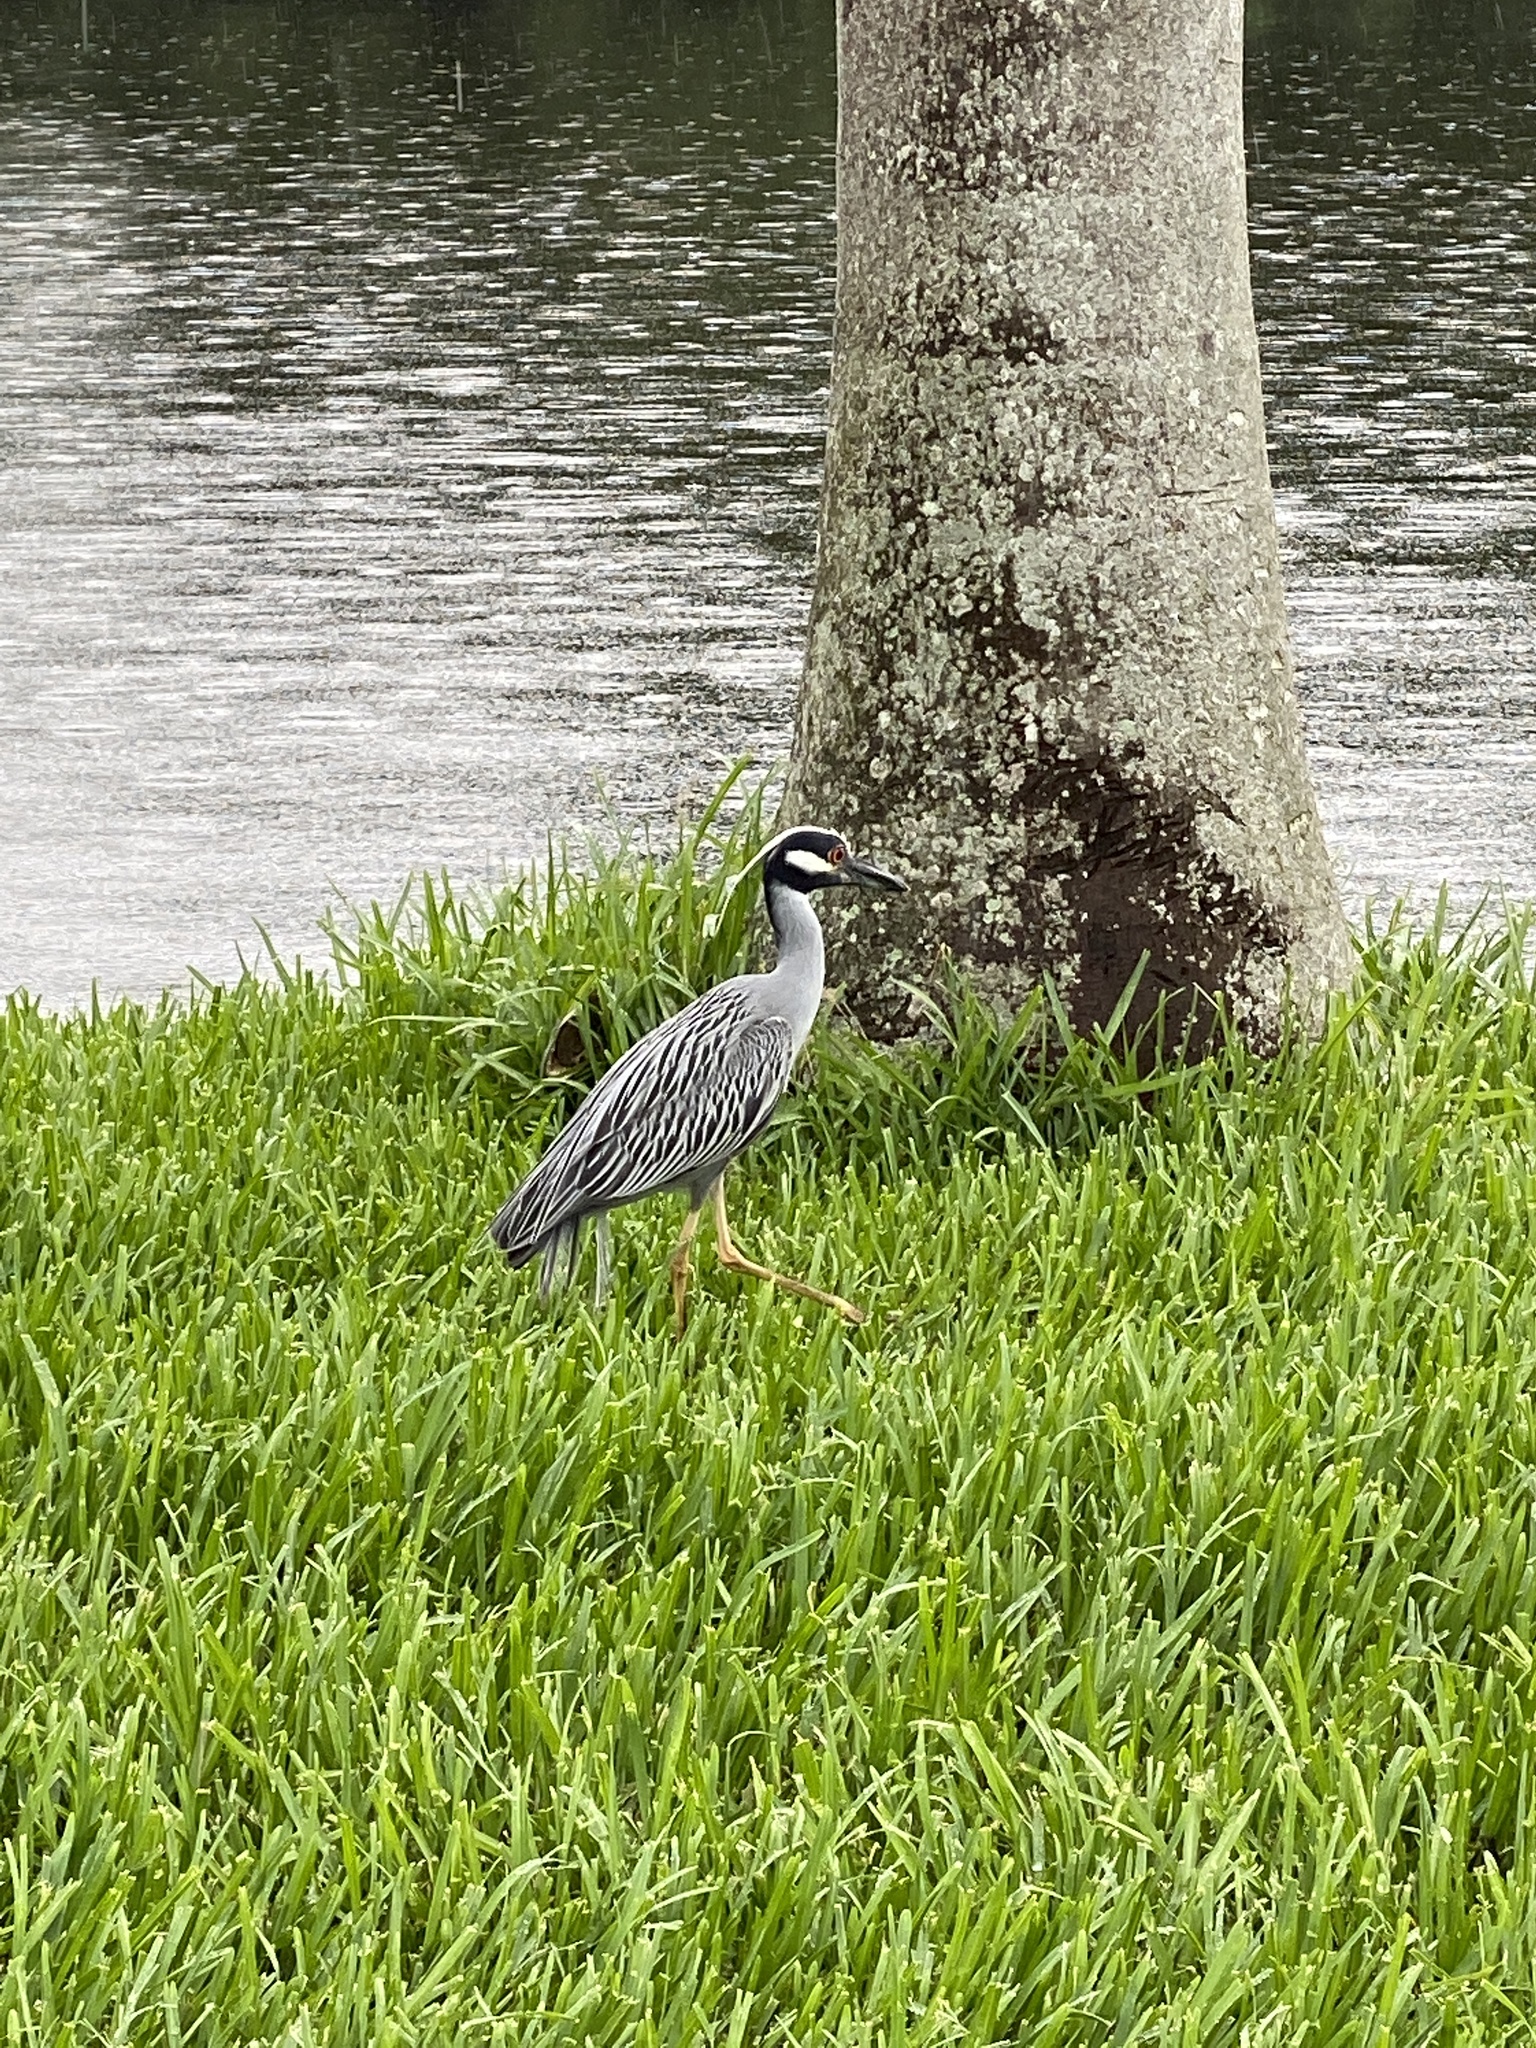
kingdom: Animalia
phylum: Chordata
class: Aves
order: Pelecaniformes
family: Ardeidae
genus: Nyctanassa
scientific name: Nyctanassa violacea
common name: Yellow-crowned night heron
